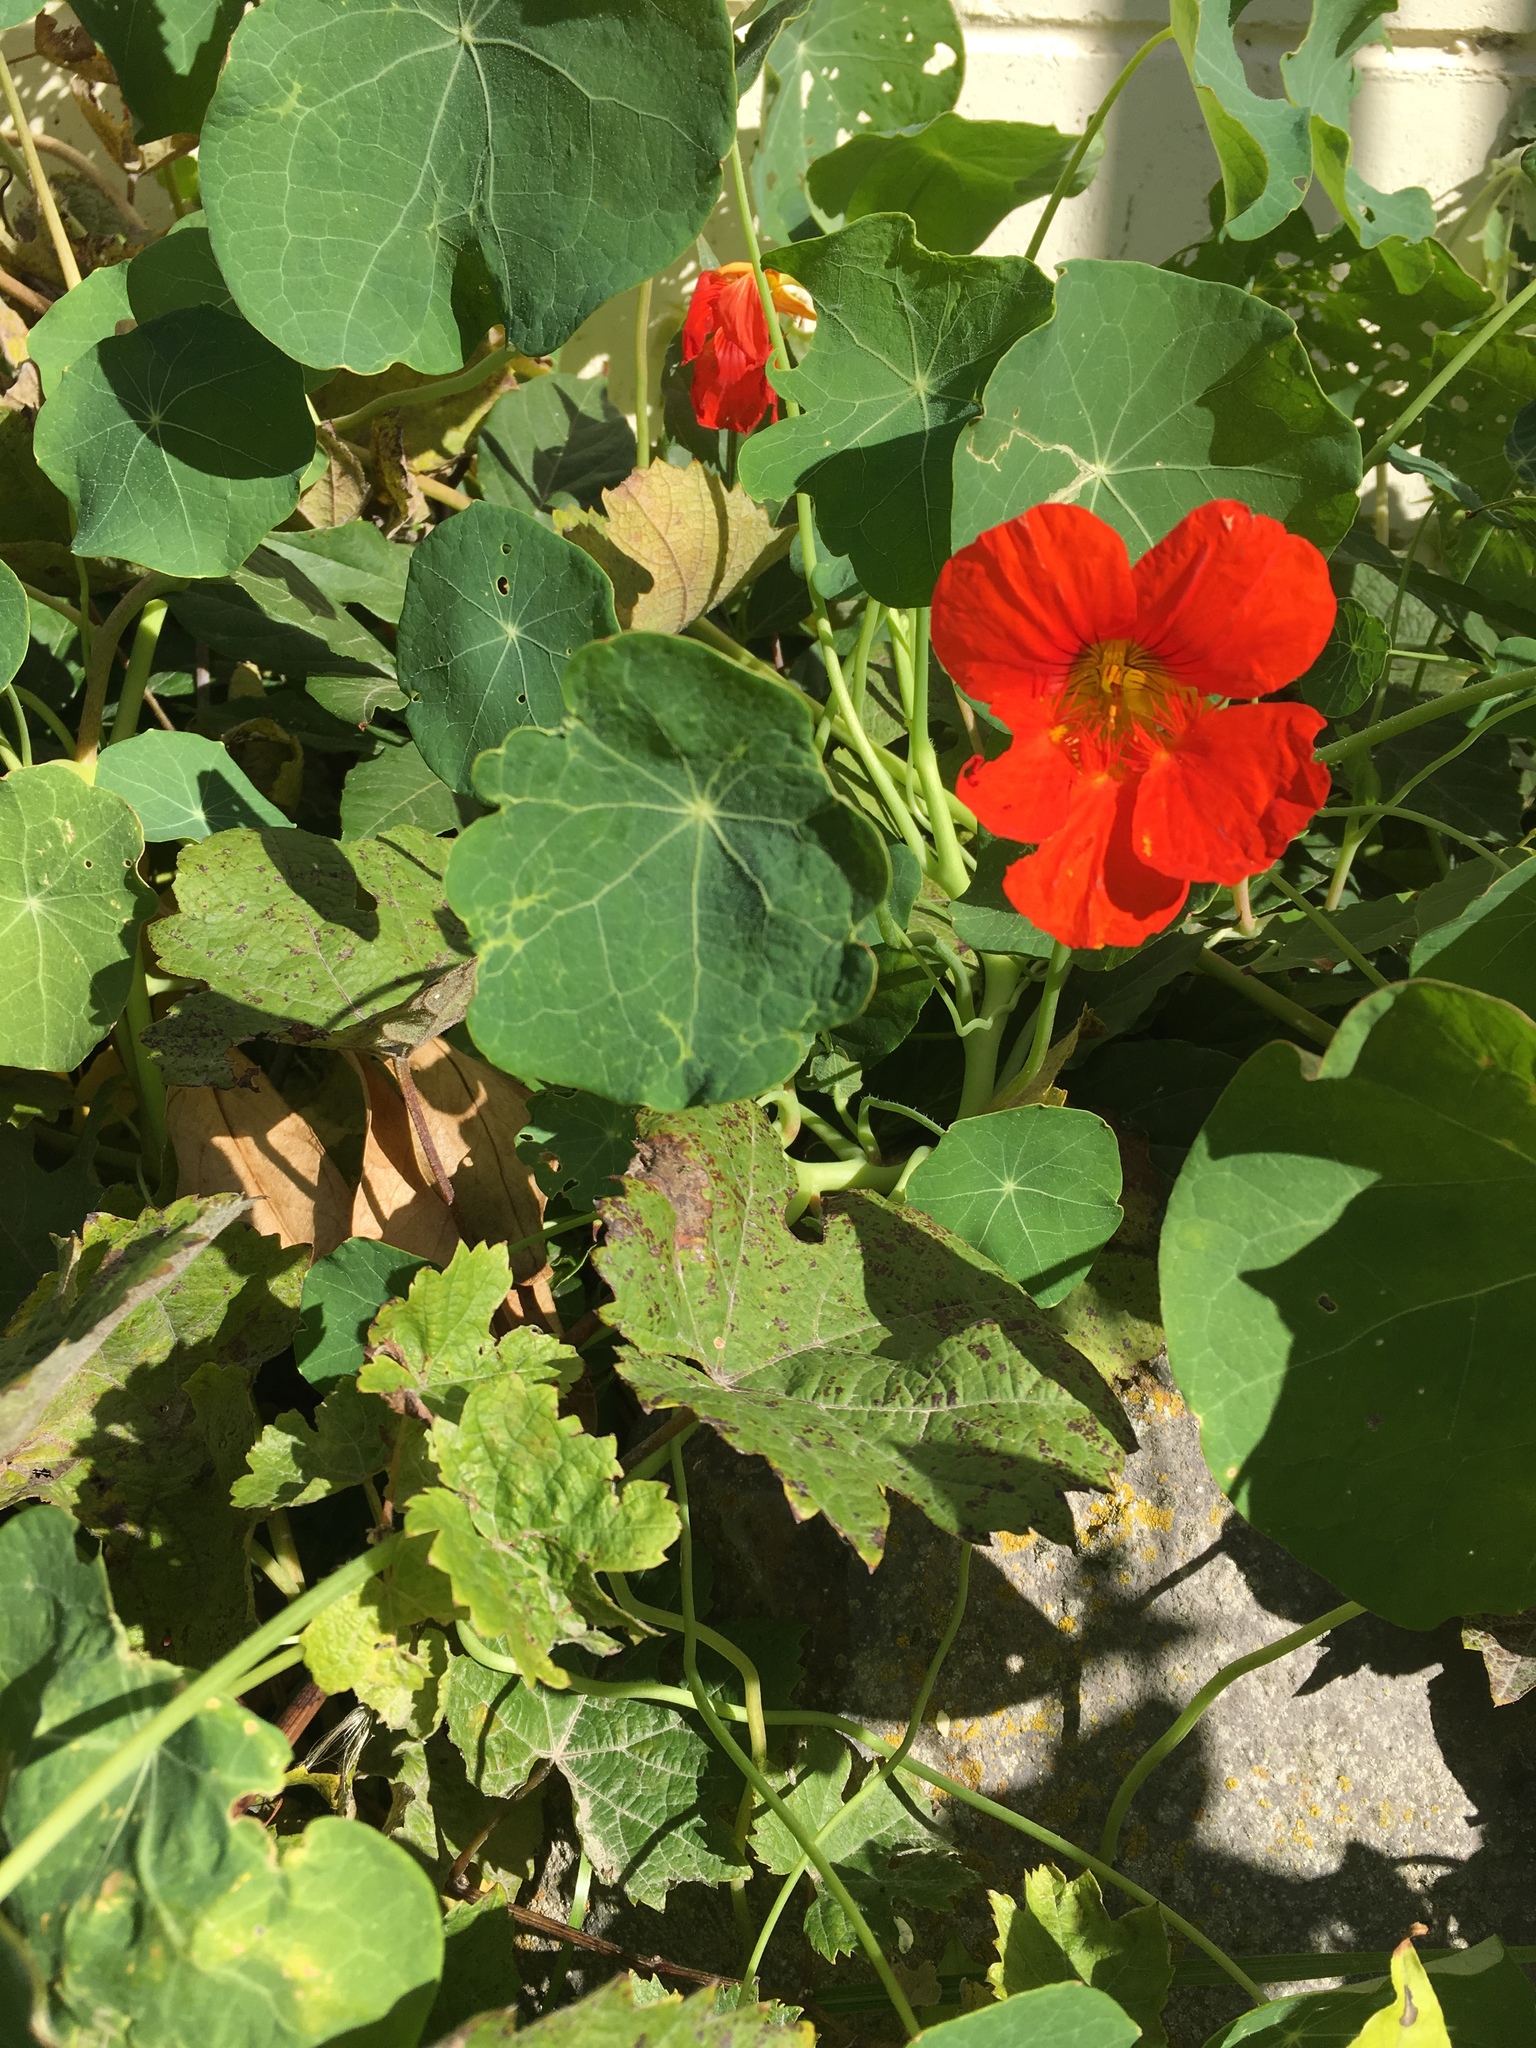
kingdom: Plantae
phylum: Tracheophyta
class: Magnoliopsida
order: Brassicales
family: Tropaeolaceae
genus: Tropaeolum
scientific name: Tropaeolum majus
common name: Nasturtium
